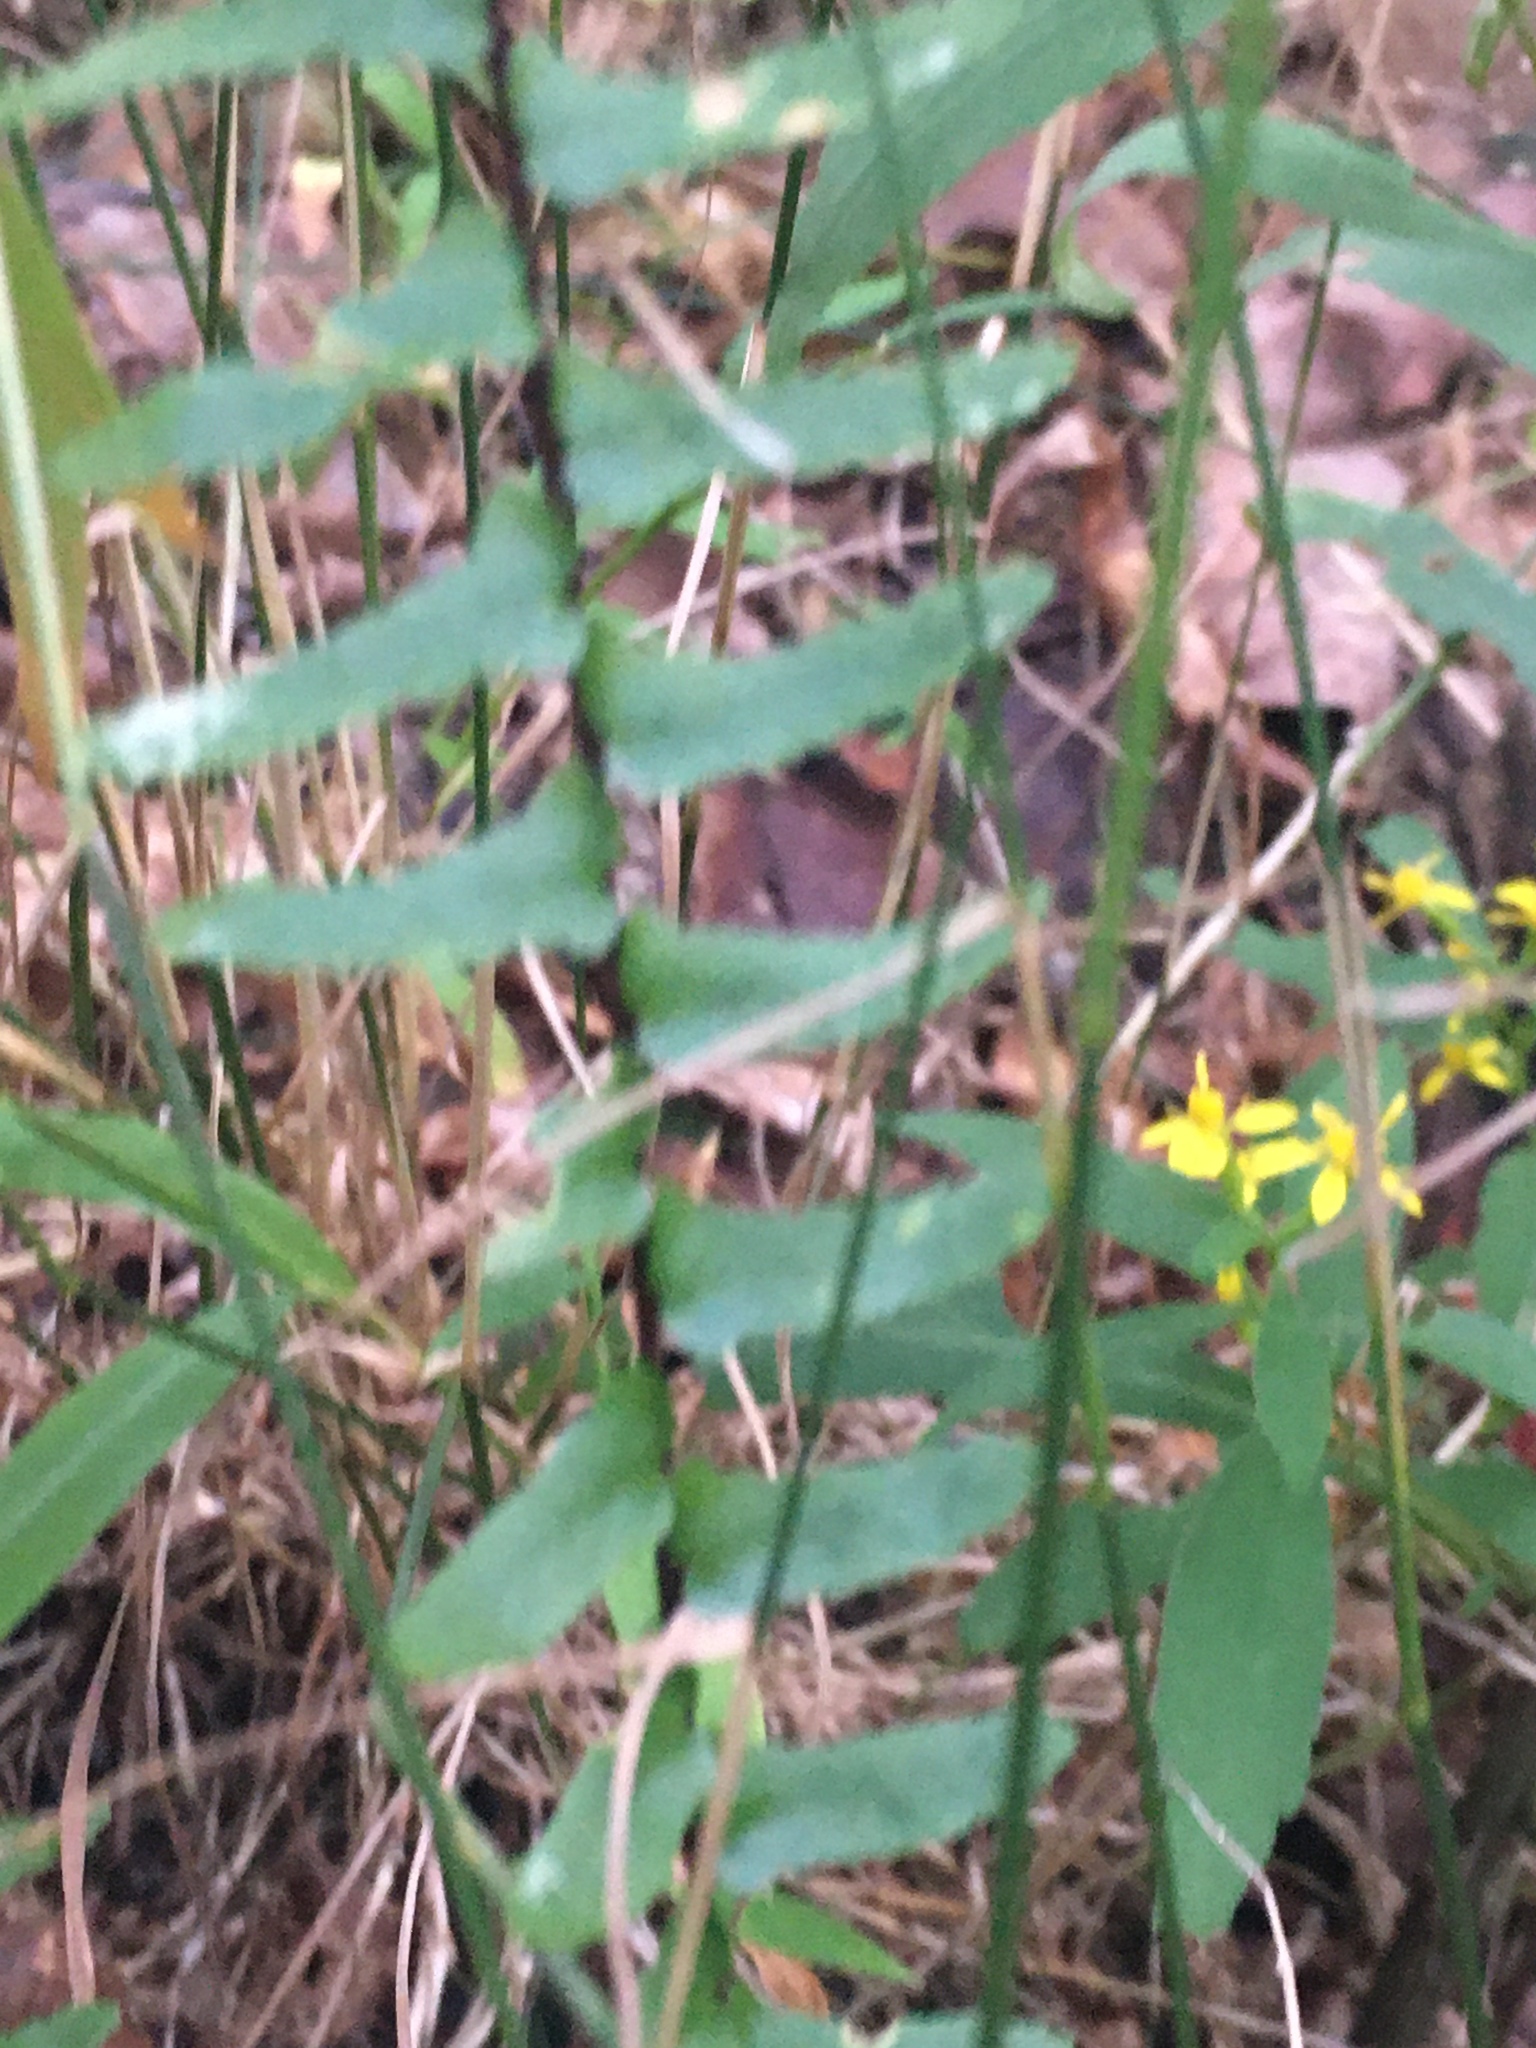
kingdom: Plantae
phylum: Tracheophyta
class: Polypodiopsida
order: Polypodiales
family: Aspleniaceae
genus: Asplenium
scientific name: Asplenium platyneuron
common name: Ebony spleenwort
